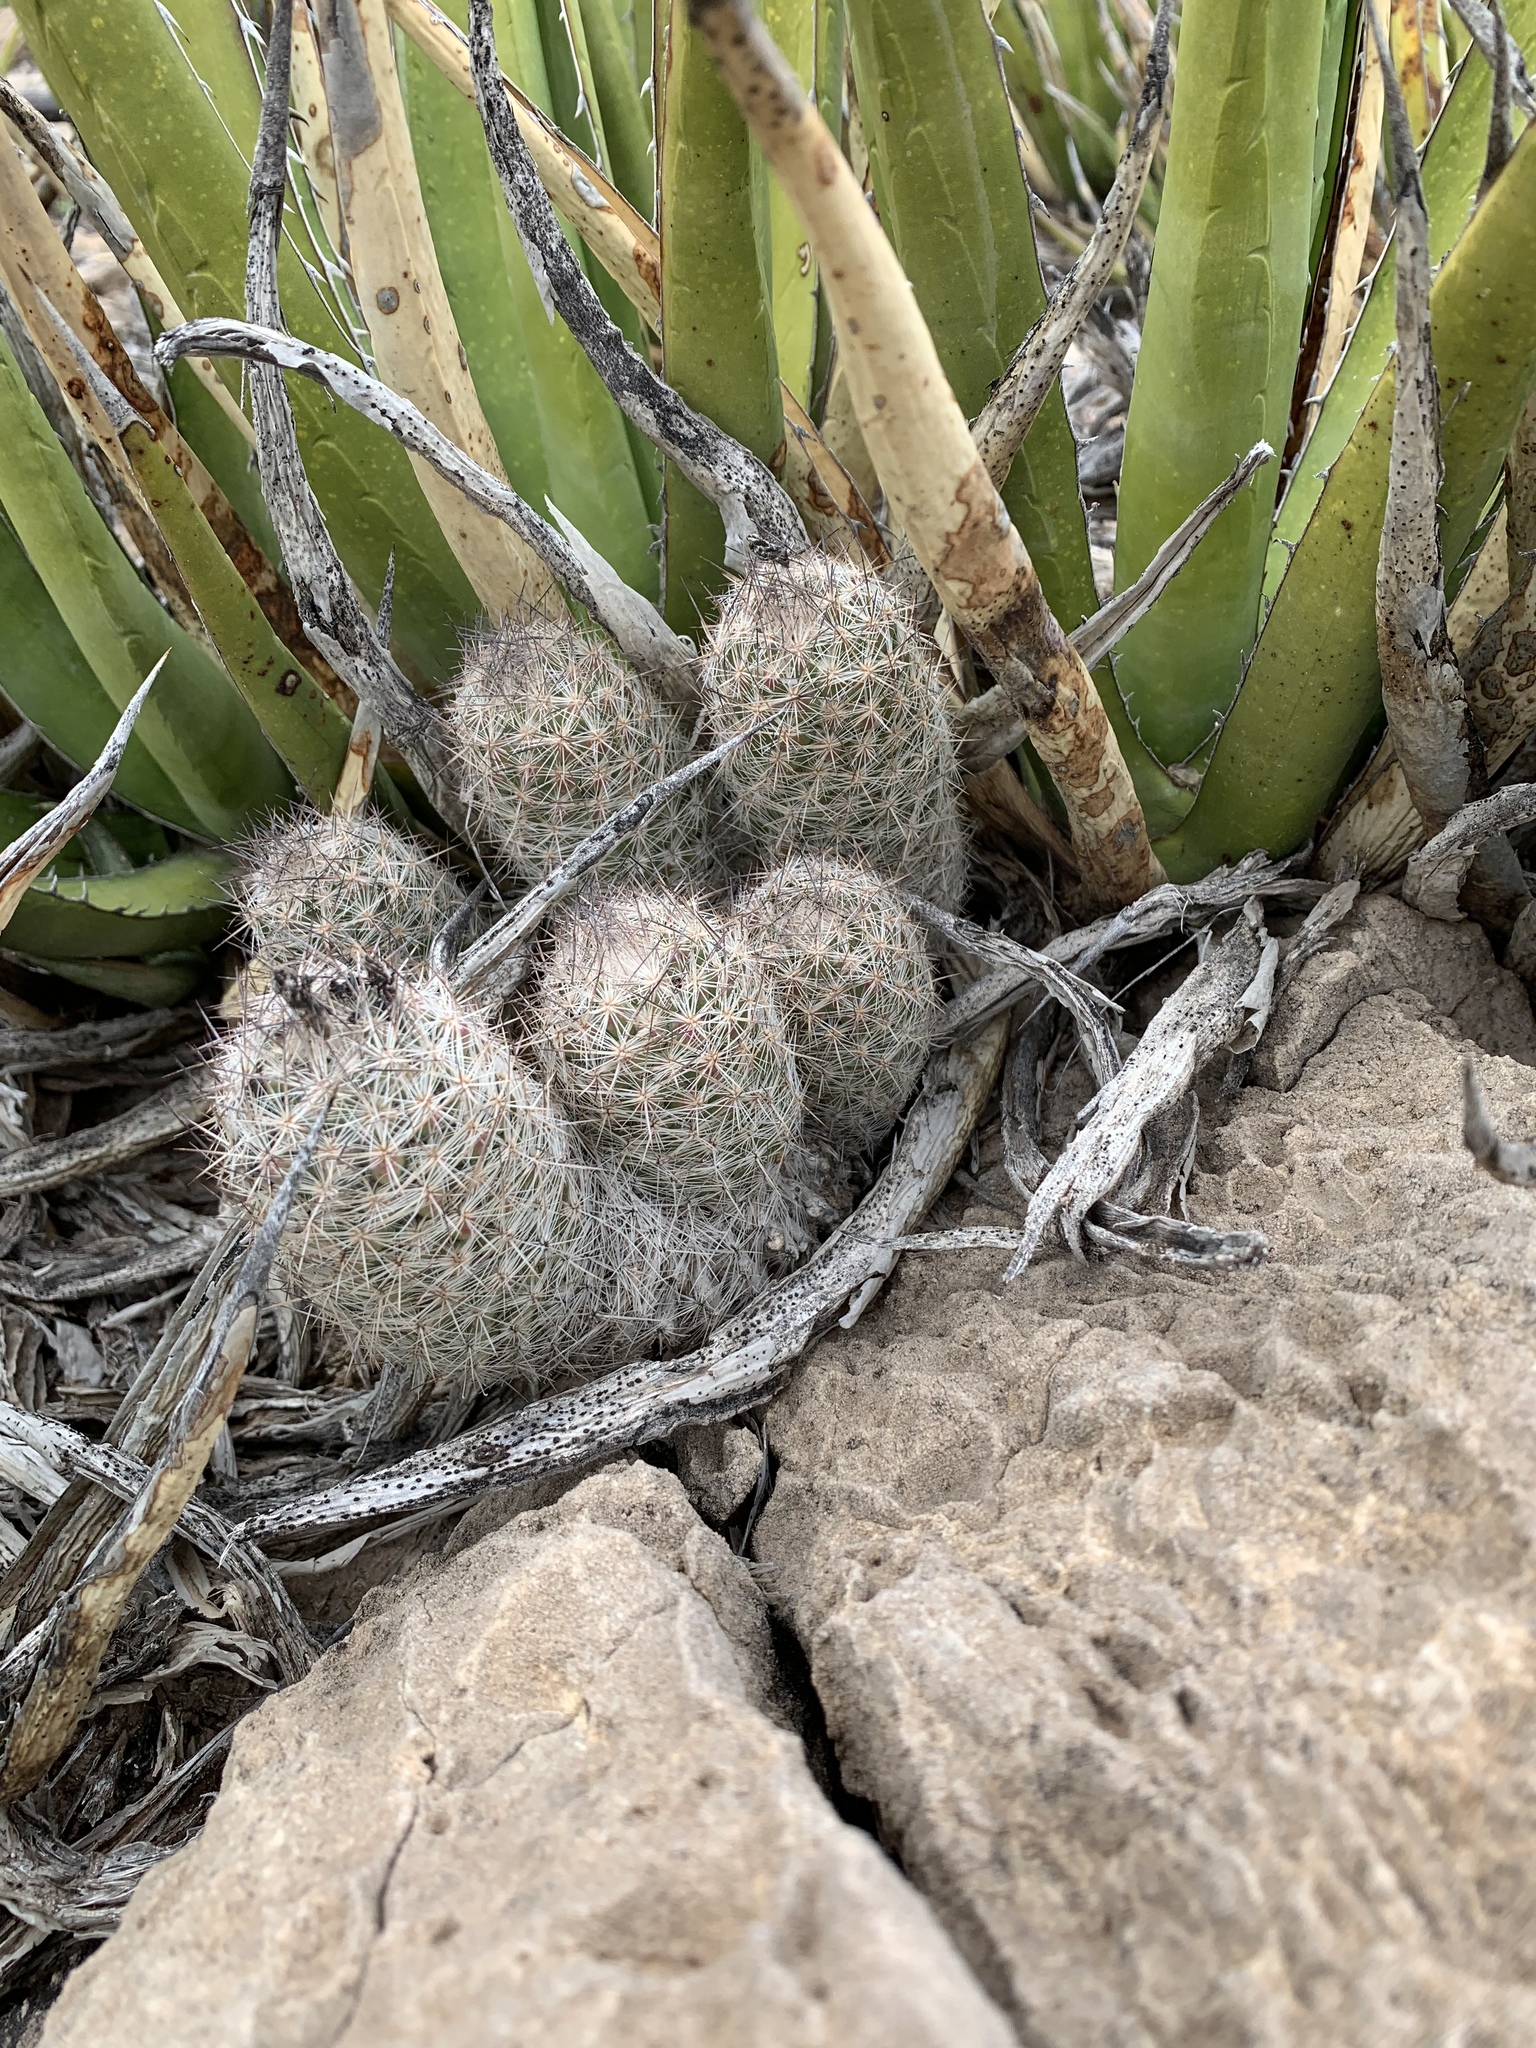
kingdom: Plantae
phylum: Tracheophyta
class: Magnoliopsida
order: Caryophyllales
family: Cactaceae
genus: Pelecyphora
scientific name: Pelecyphora tuberculosa
